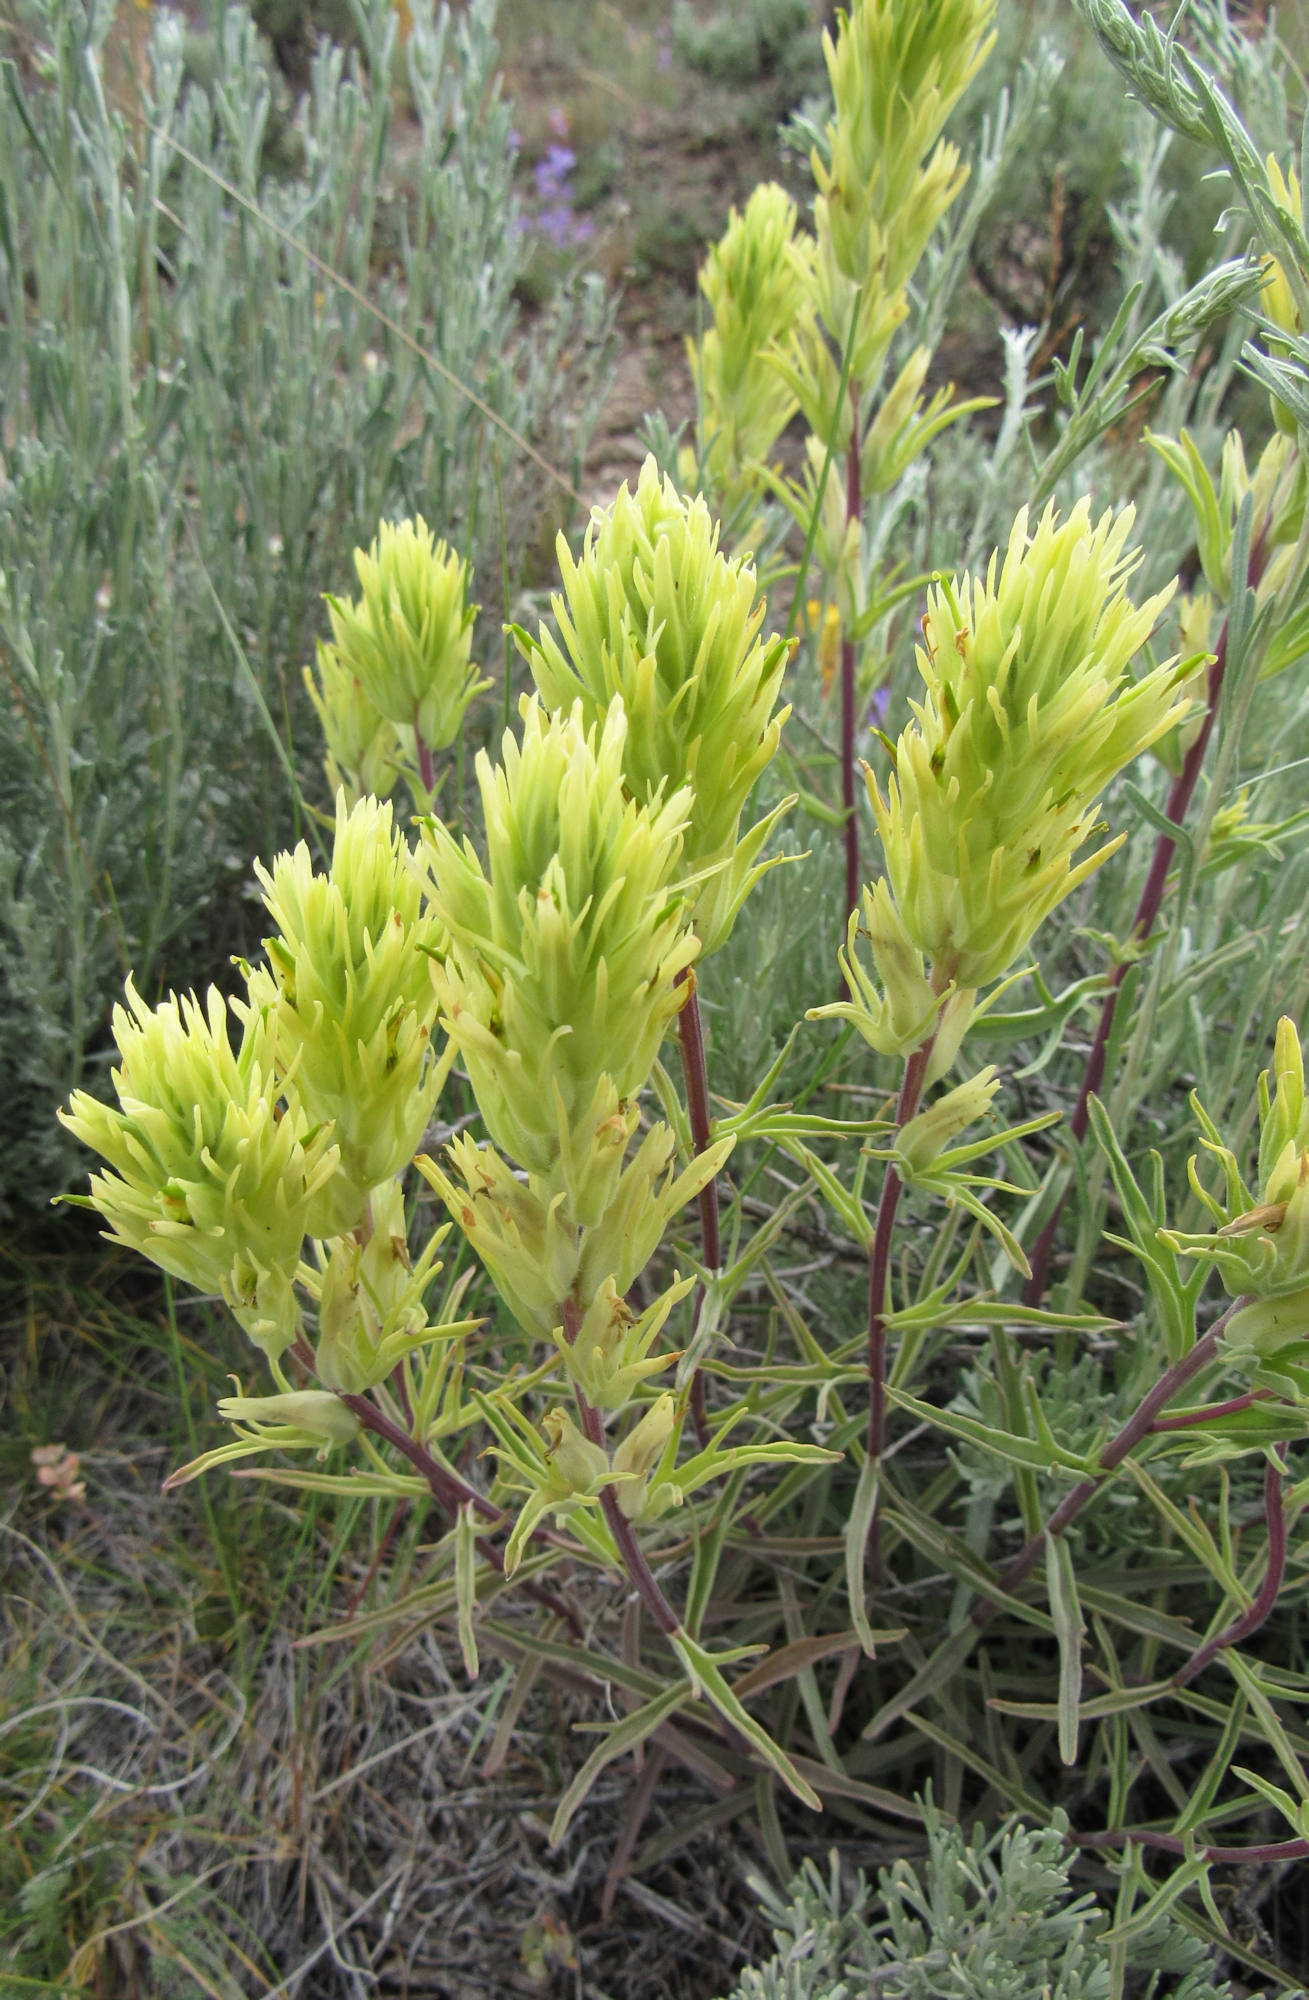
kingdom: Plantae
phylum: Tracheophyta
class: Magnoliopsida
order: Lamiales
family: Orobanchaceae
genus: Castilleja
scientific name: Castilleja flava
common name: Yellow paintbrush
